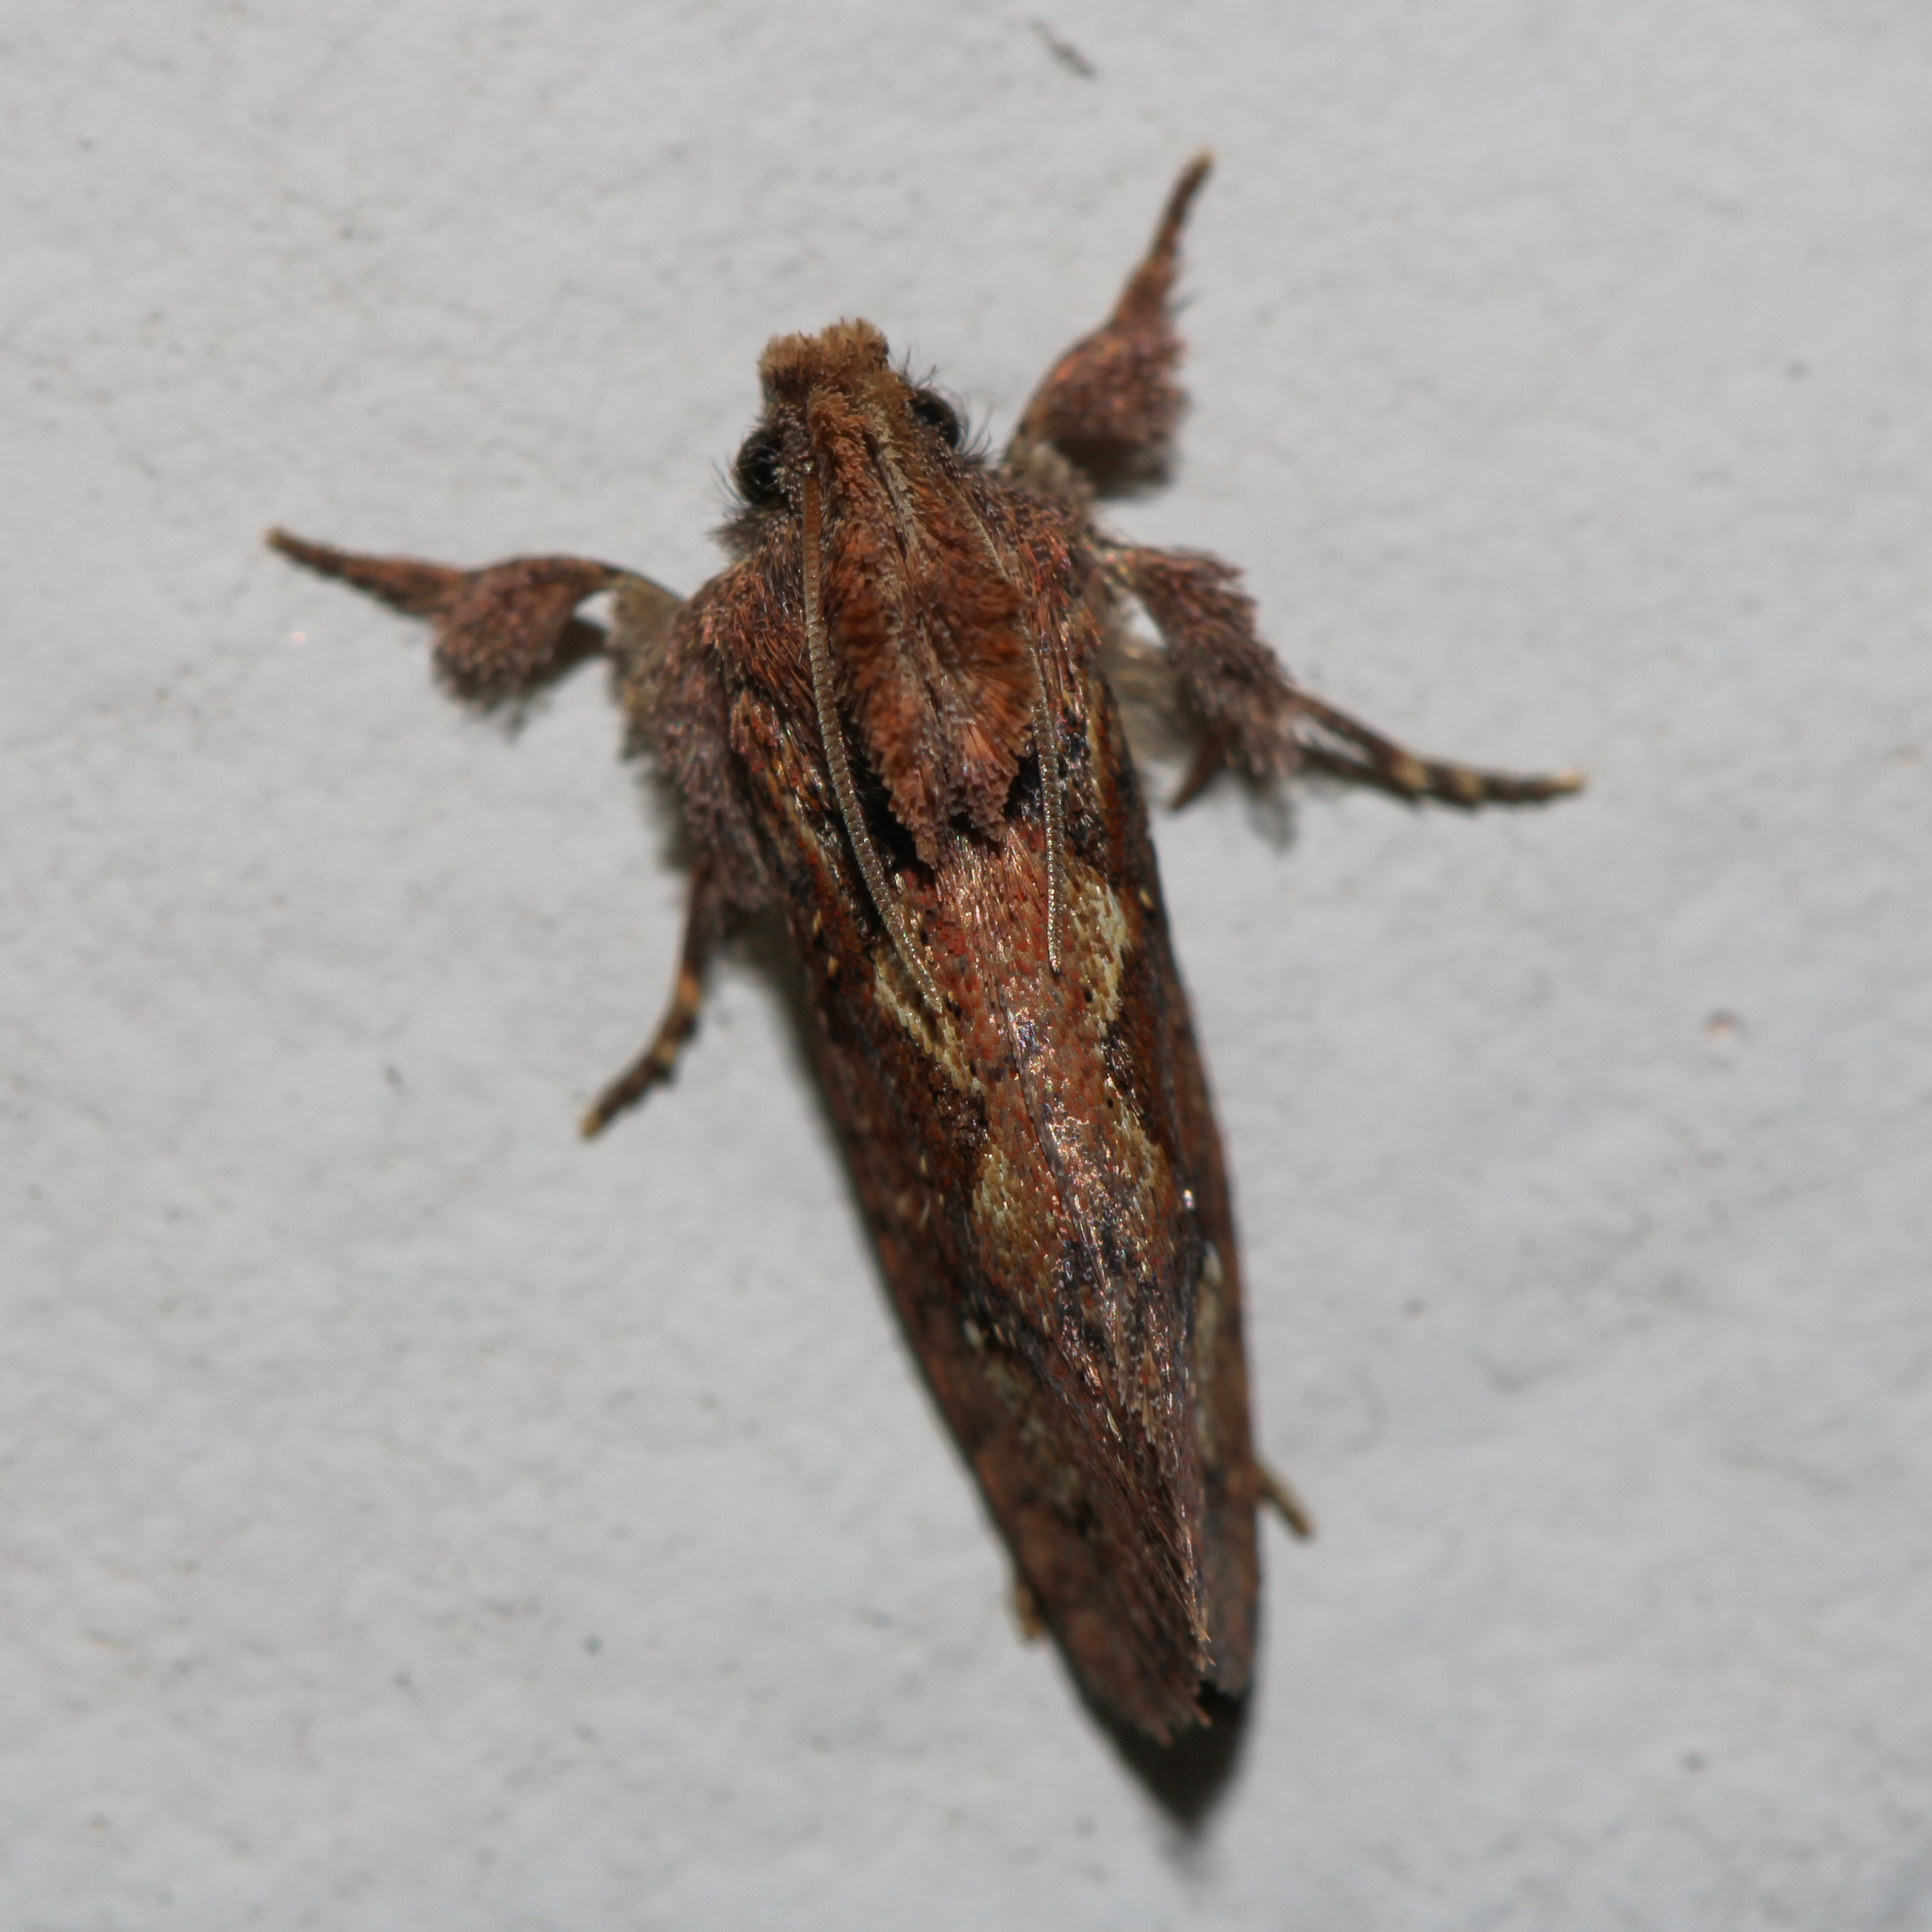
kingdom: Animalia
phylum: Arthropoda
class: Insecta
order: Lepidoptera
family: Tineidae
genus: Acrolophus
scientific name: Acrolophus walsinghami
